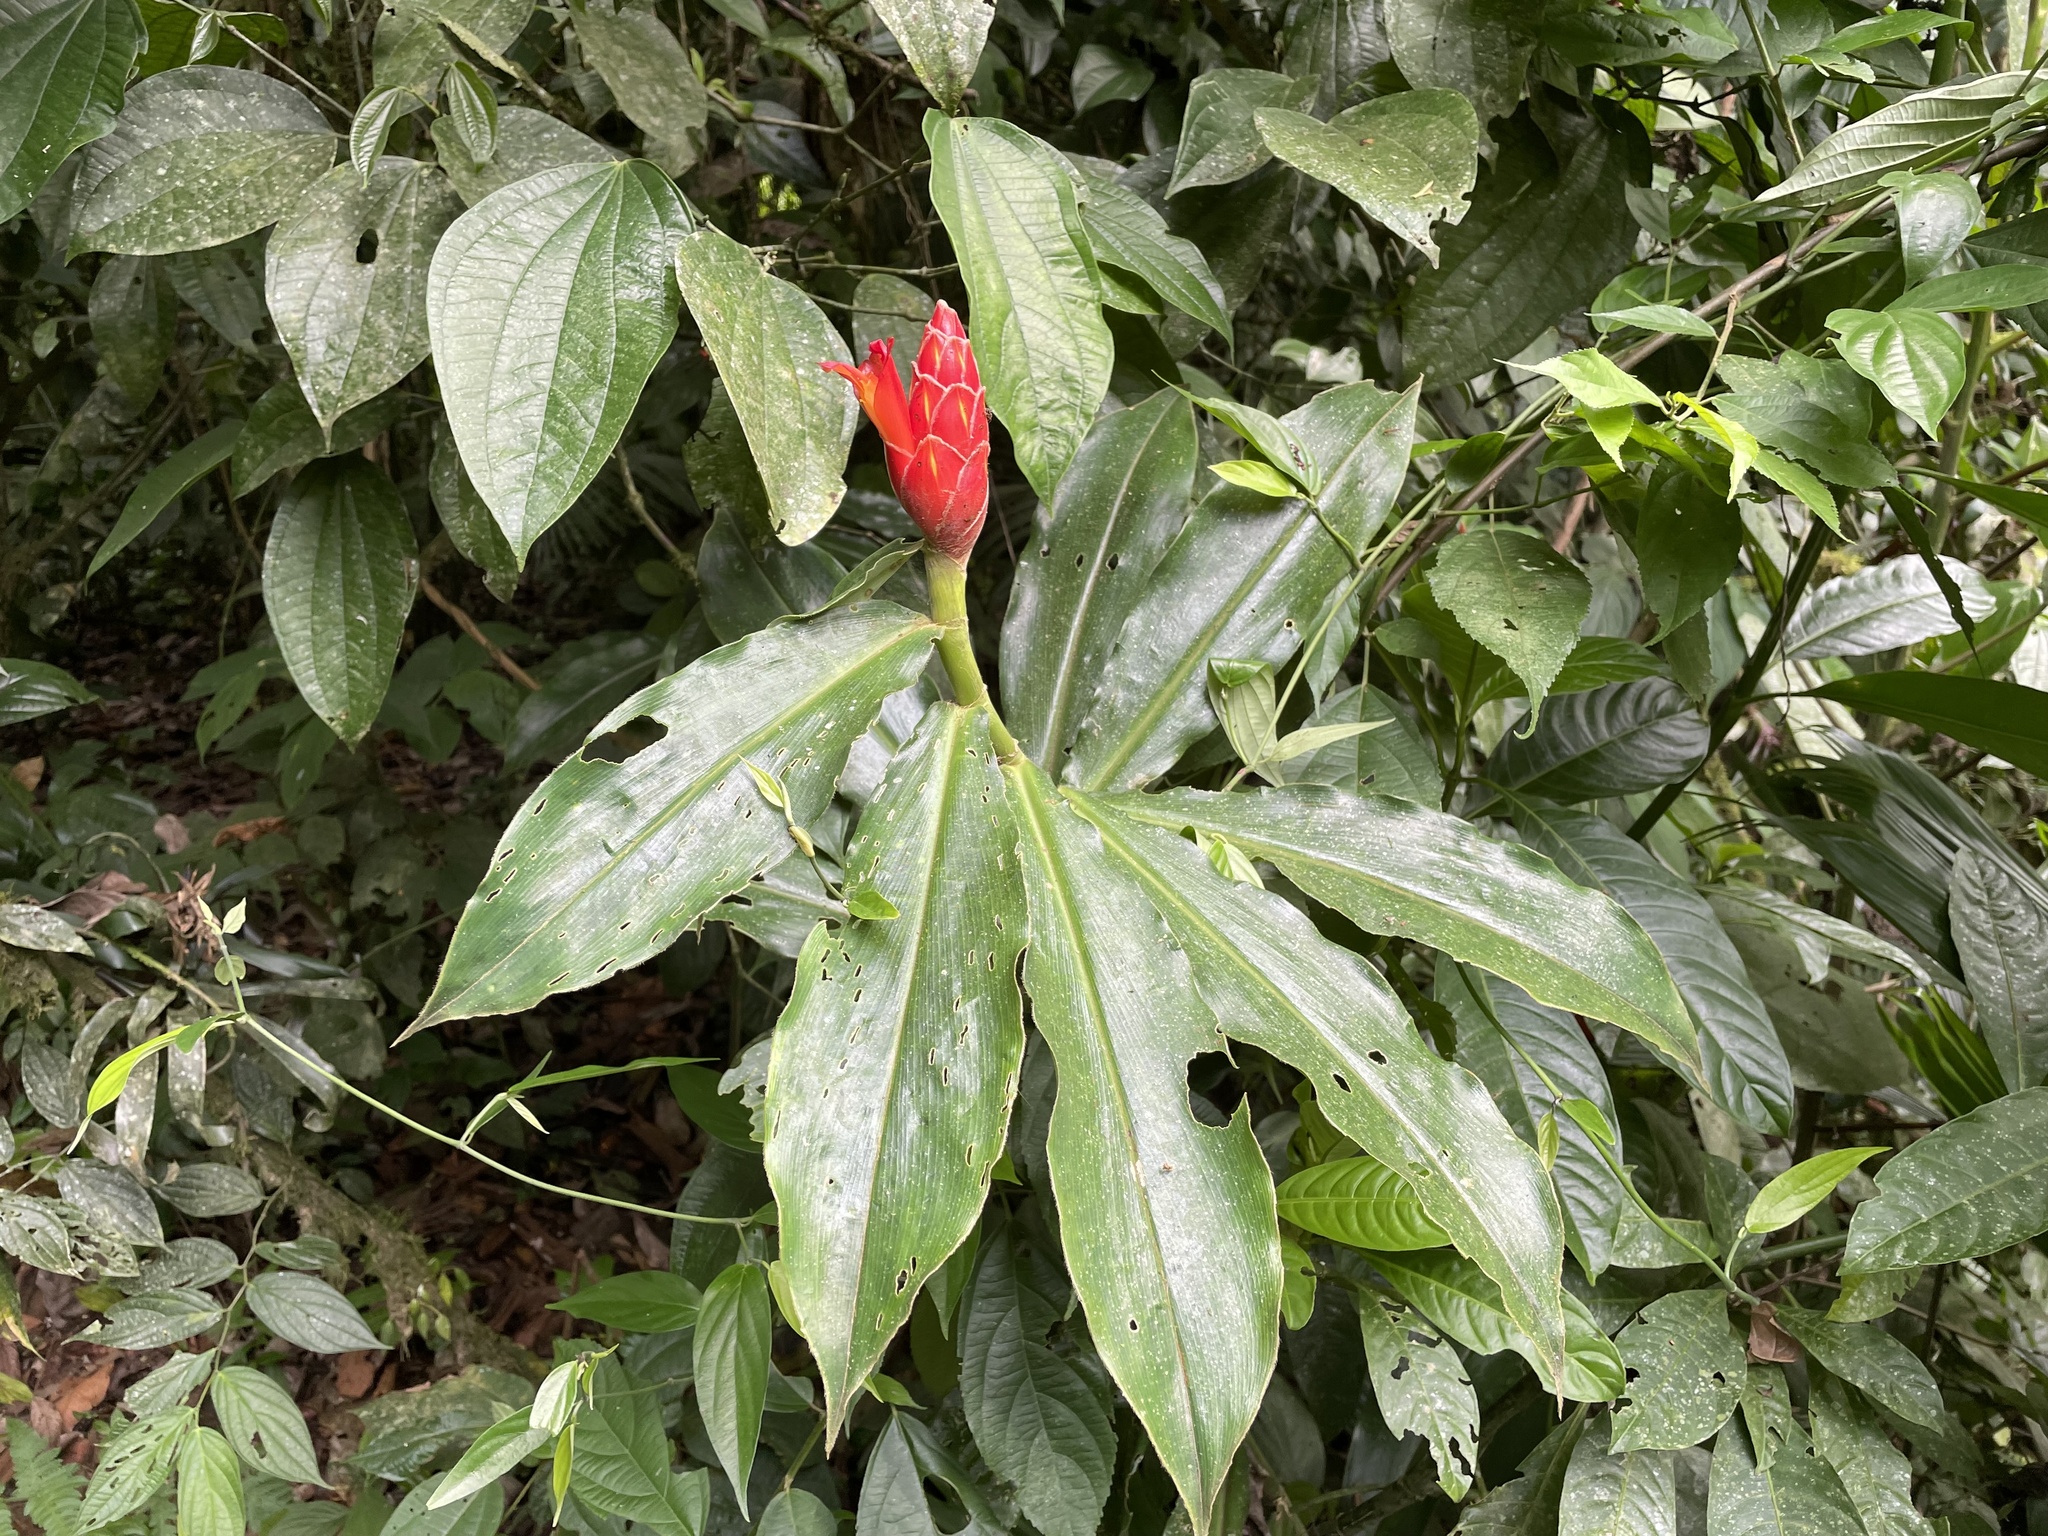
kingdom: Plantae
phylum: Tracheophyta
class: Liliopsida
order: Zingiberales
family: Costaceae
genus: Costus
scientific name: Costus pulverulentus
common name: Spiral ginger
